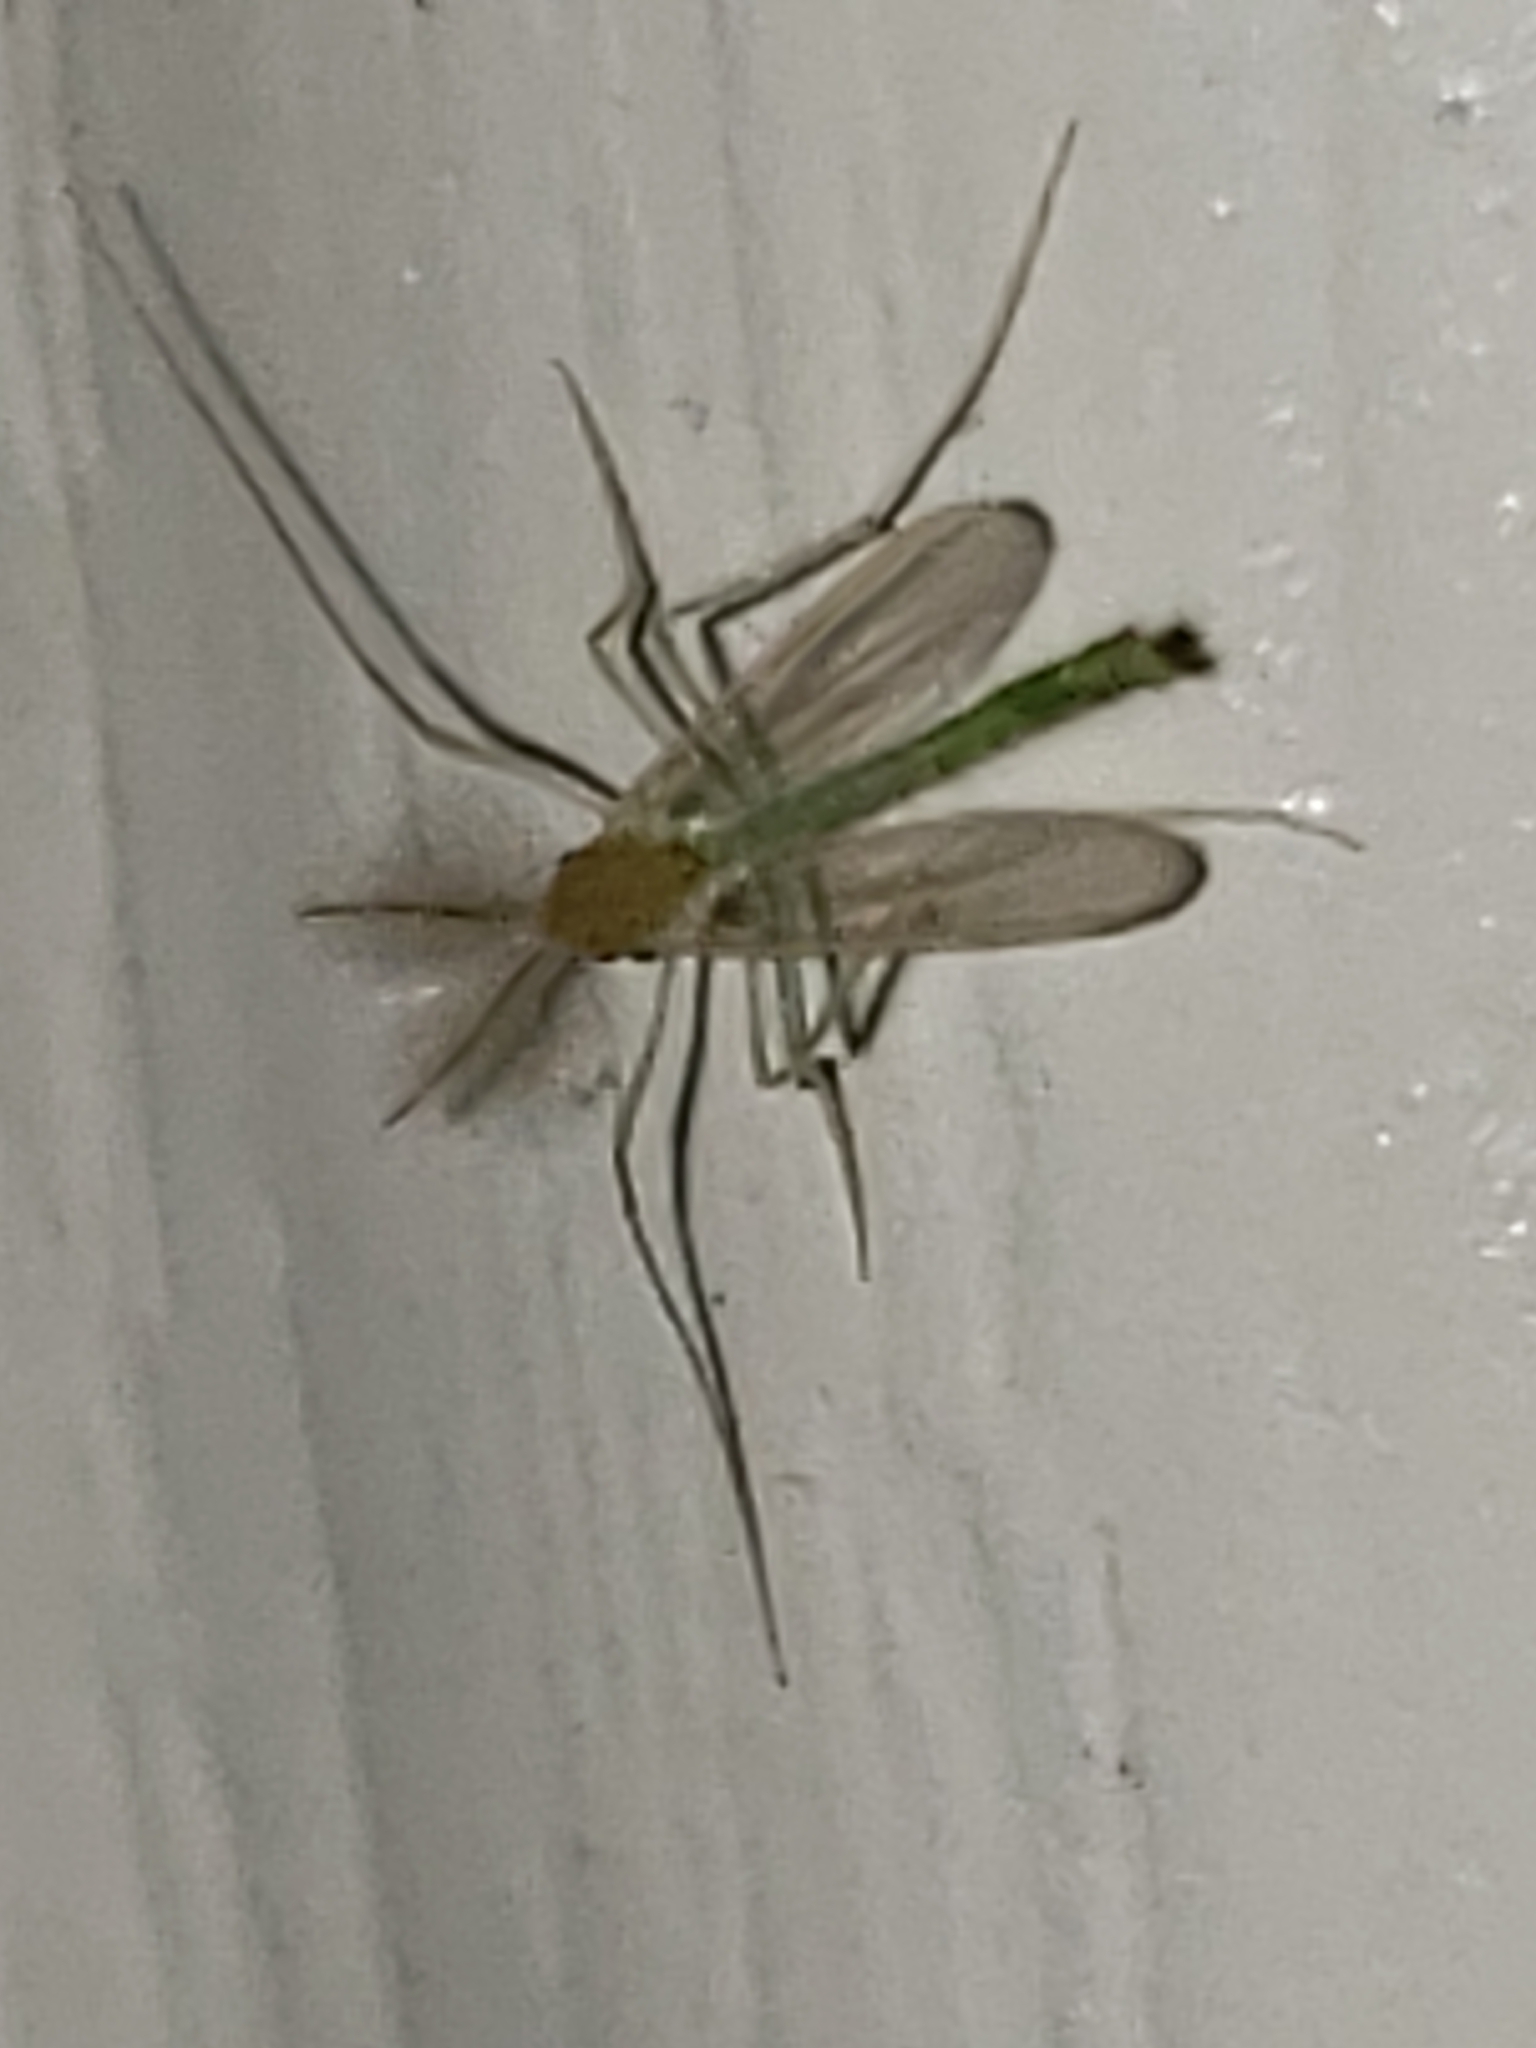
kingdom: Animalia
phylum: Arthropoda
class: Insecta
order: Diptera
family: Chironomidae
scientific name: Chironomidae
